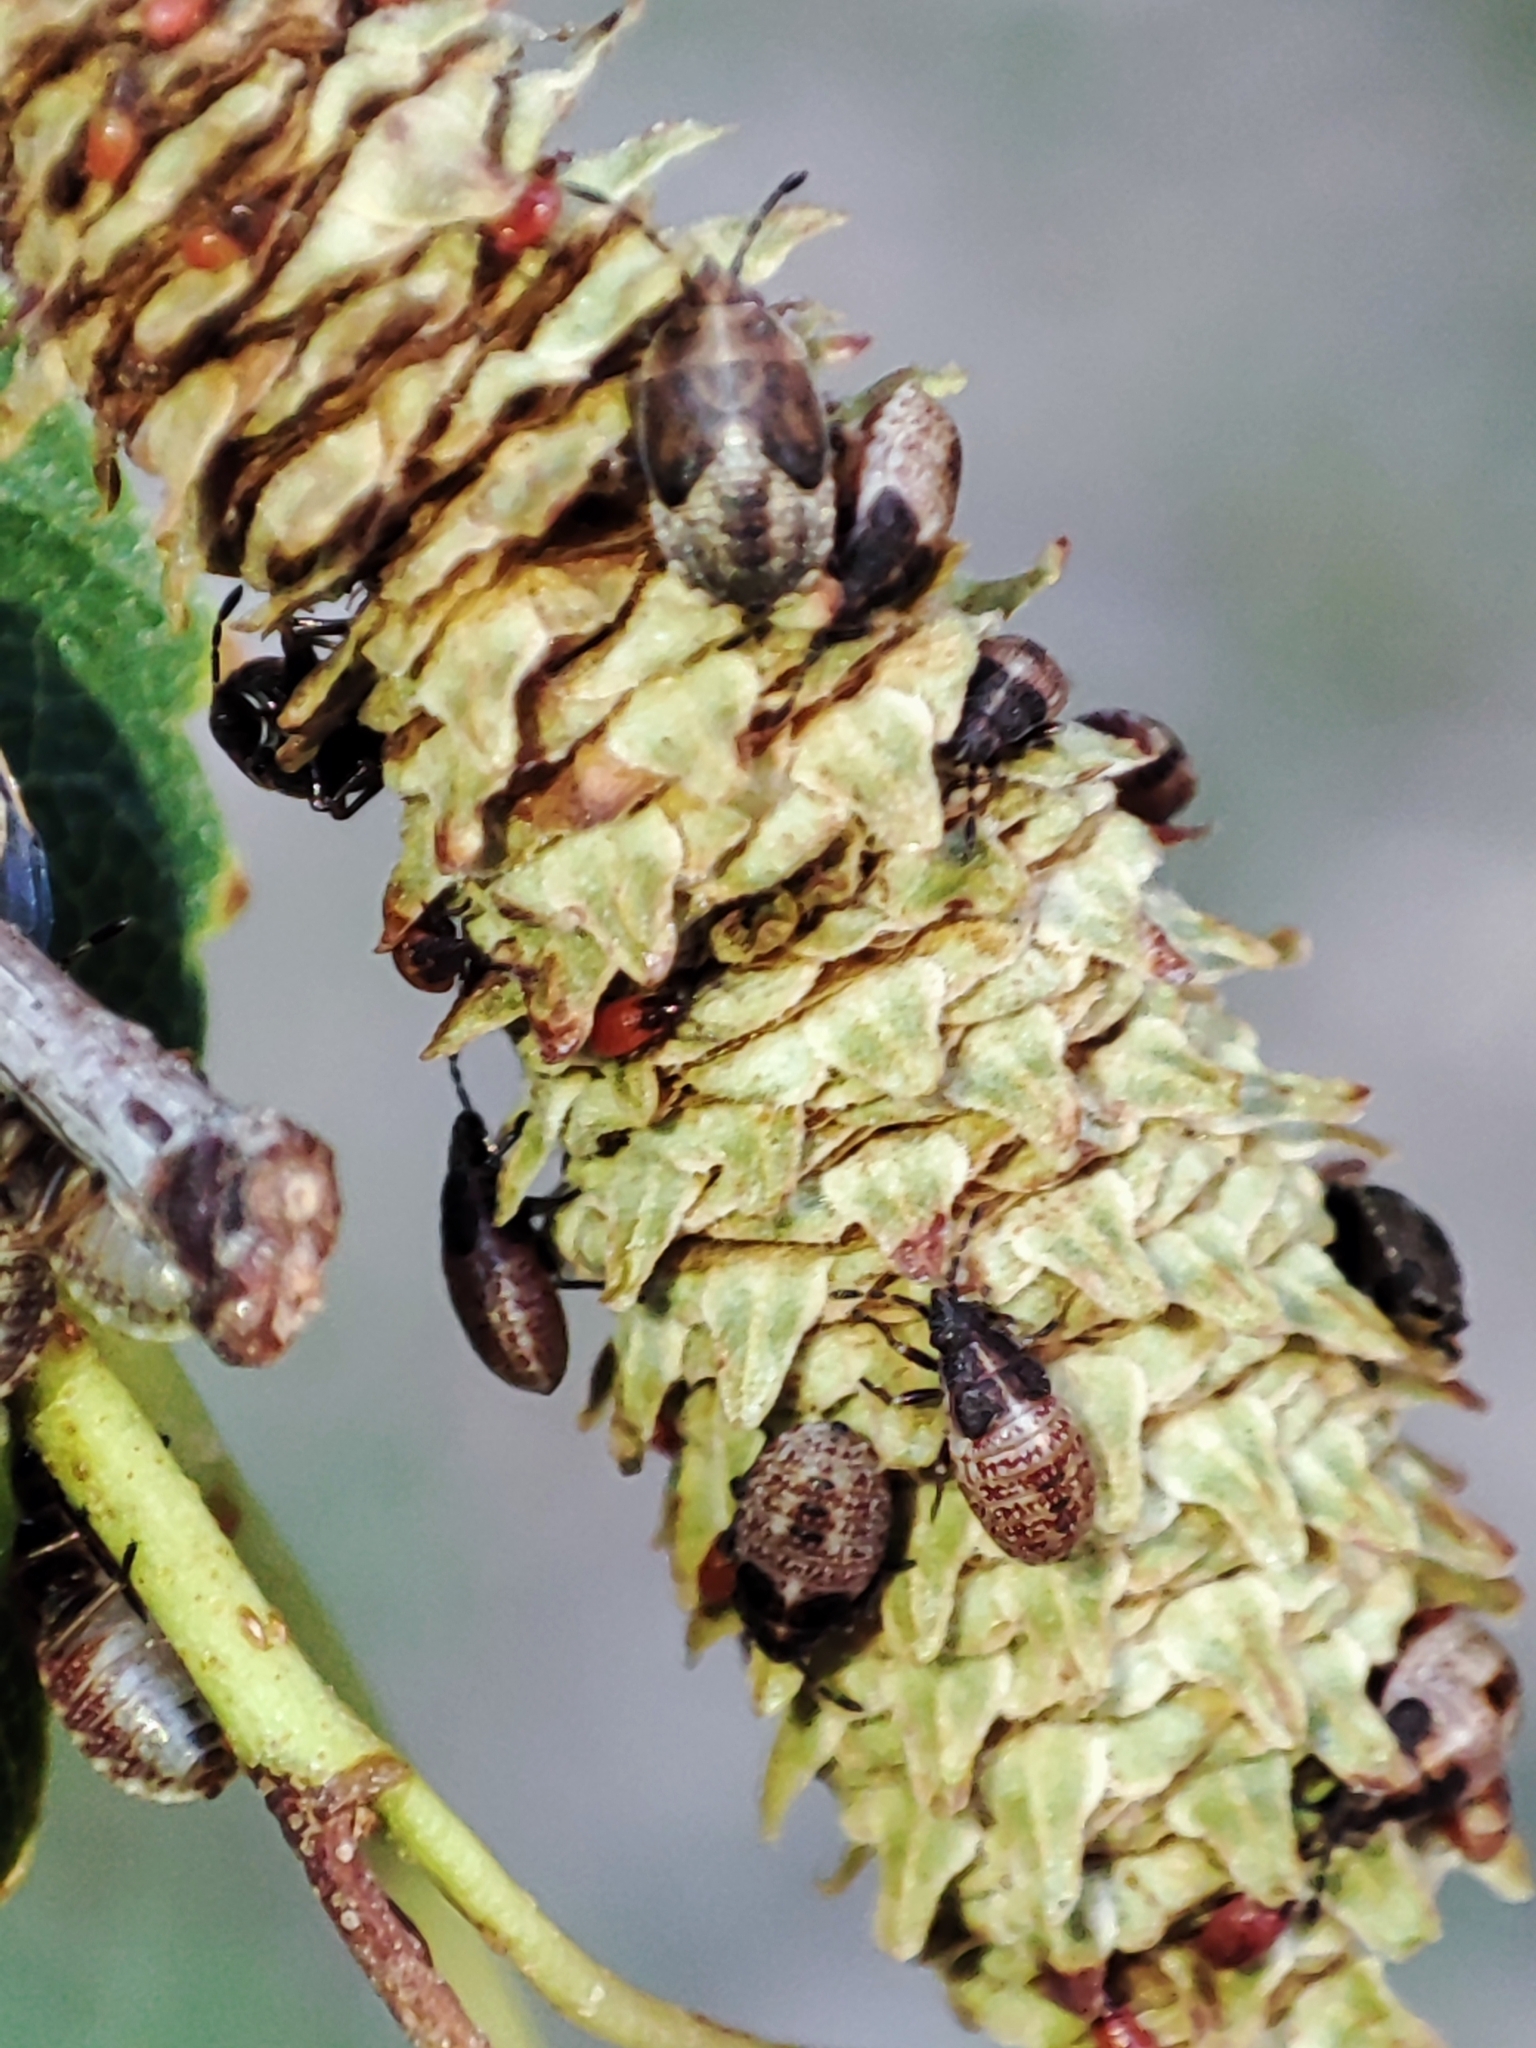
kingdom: Animalia
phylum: Arthropoda
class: Insecta
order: Hemiptera
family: Lygaeidae
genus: Kleidocerys
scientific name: Kleidocerys resedae
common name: Birch catkin bug
